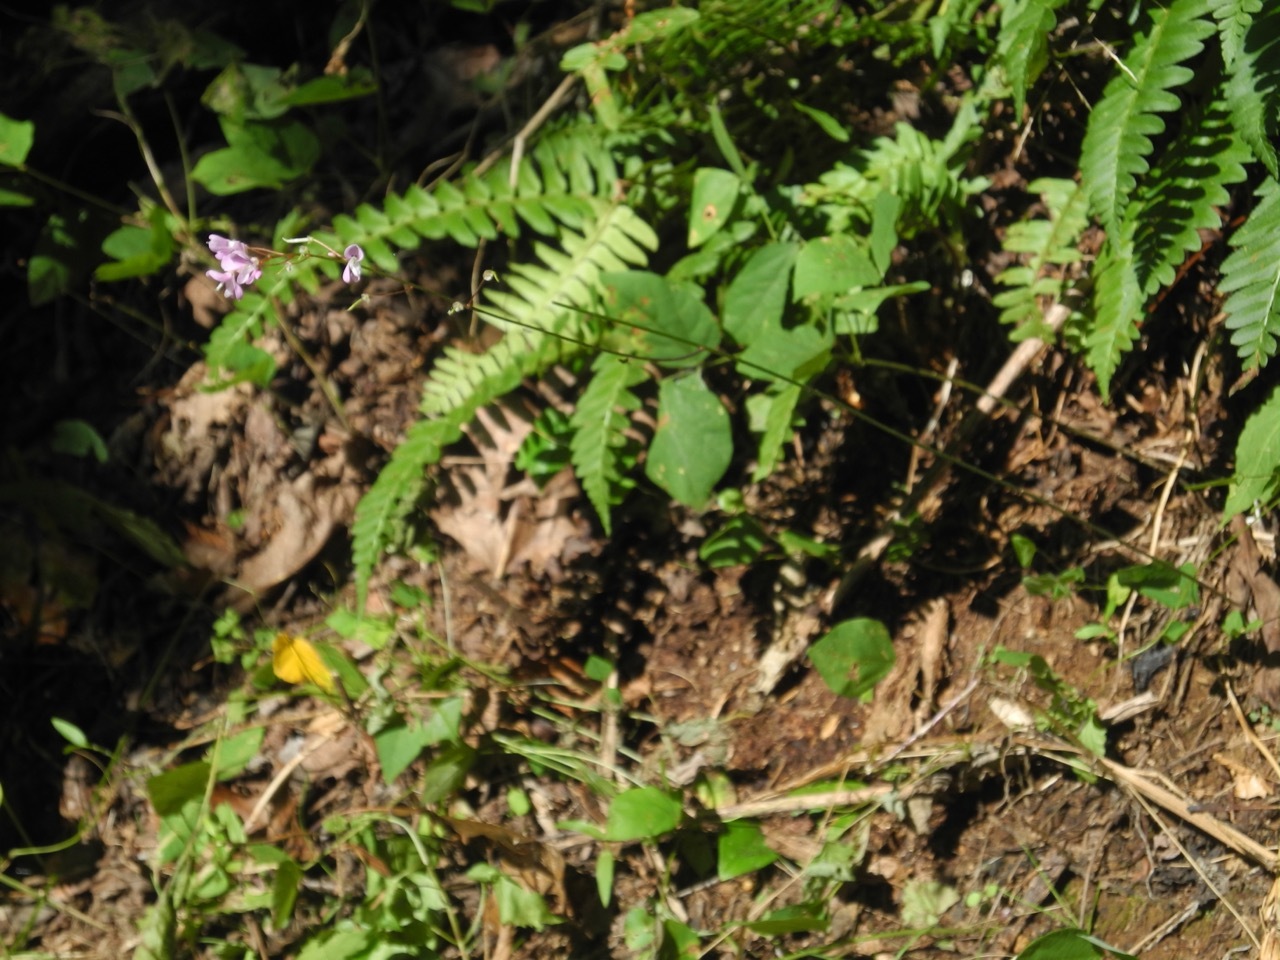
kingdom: Plantae
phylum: Tracheophyta
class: Magnoliopsida
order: Fabales
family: Fabaceae
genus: Hylodesmum
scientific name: Hylodesmum nudiflorum
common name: Bare-stemmed tick-trefoil
